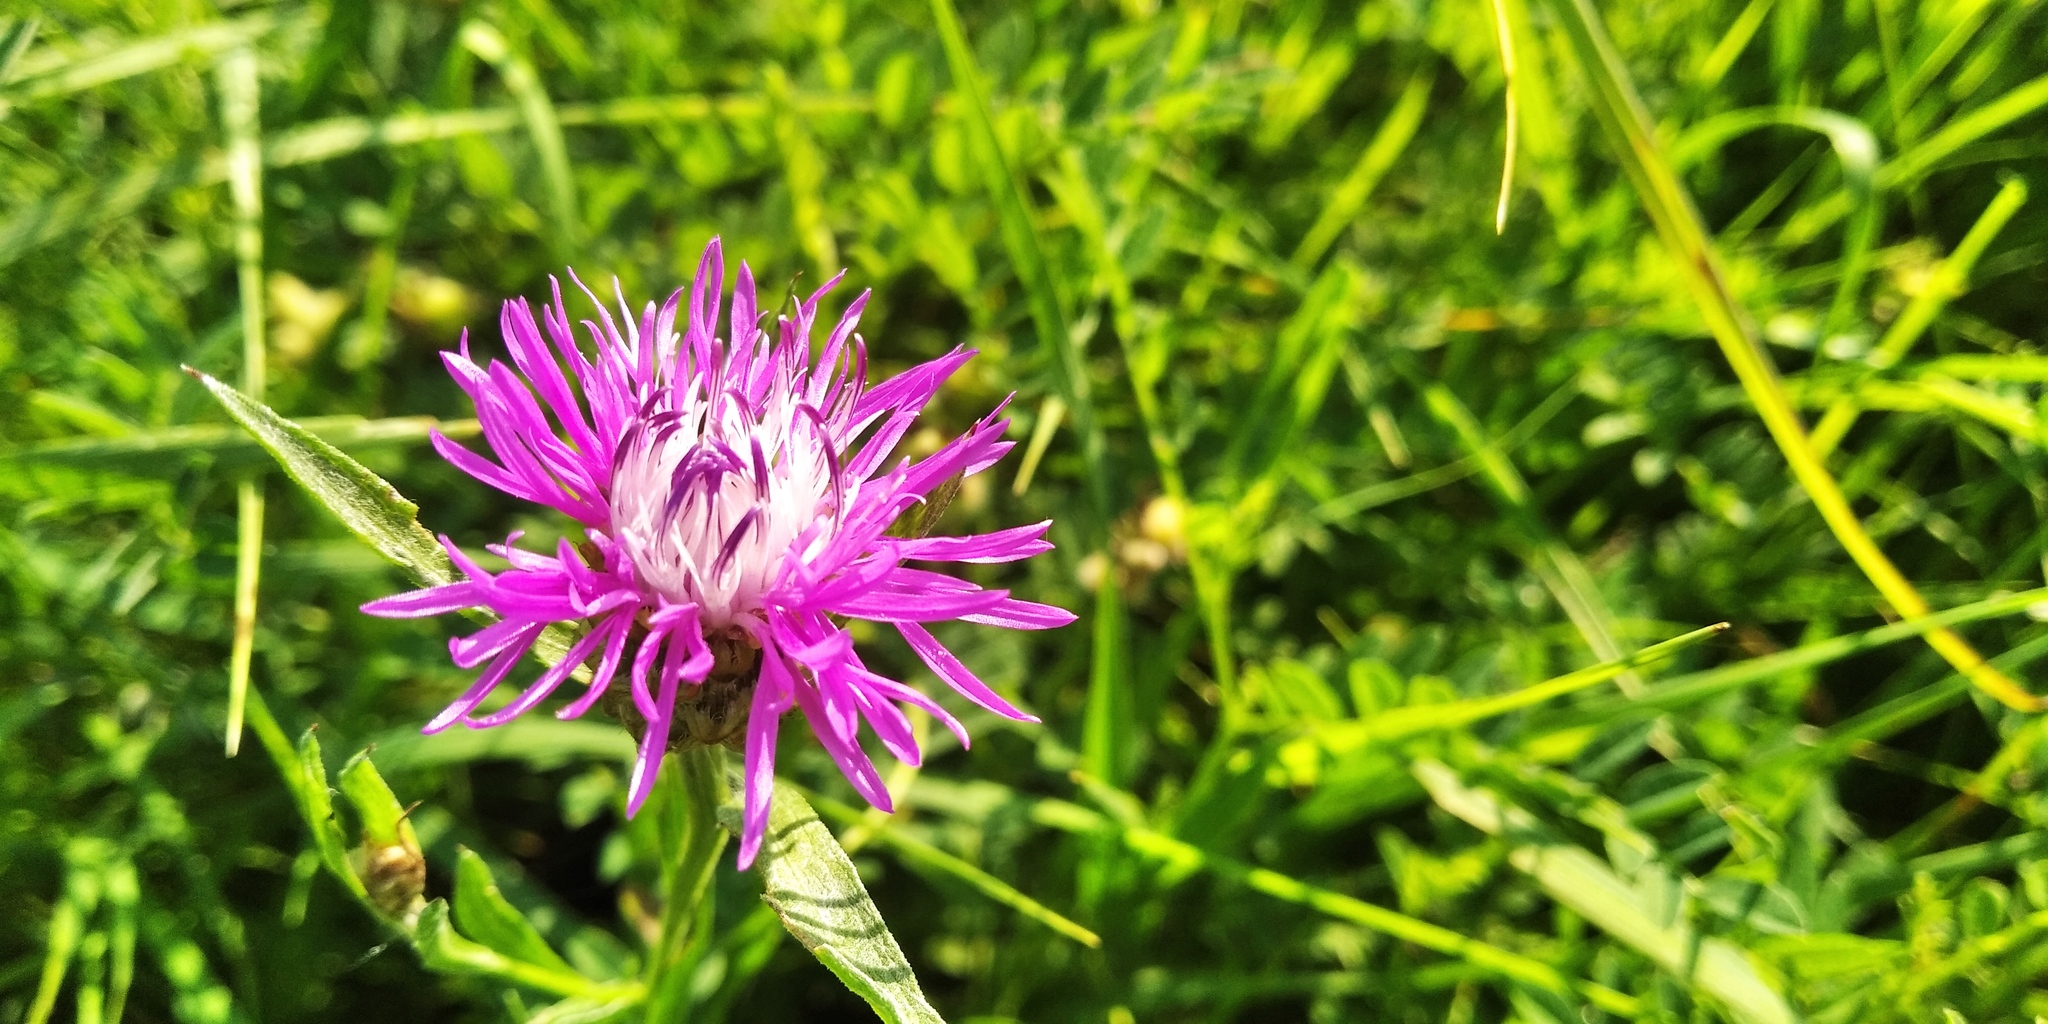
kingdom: Plantae
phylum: Tracheophyta
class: Magnoliopsida
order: Asterales
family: Asteraceae
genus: Centaurea
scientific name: Centaurea jacea
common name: Brown knapweed
